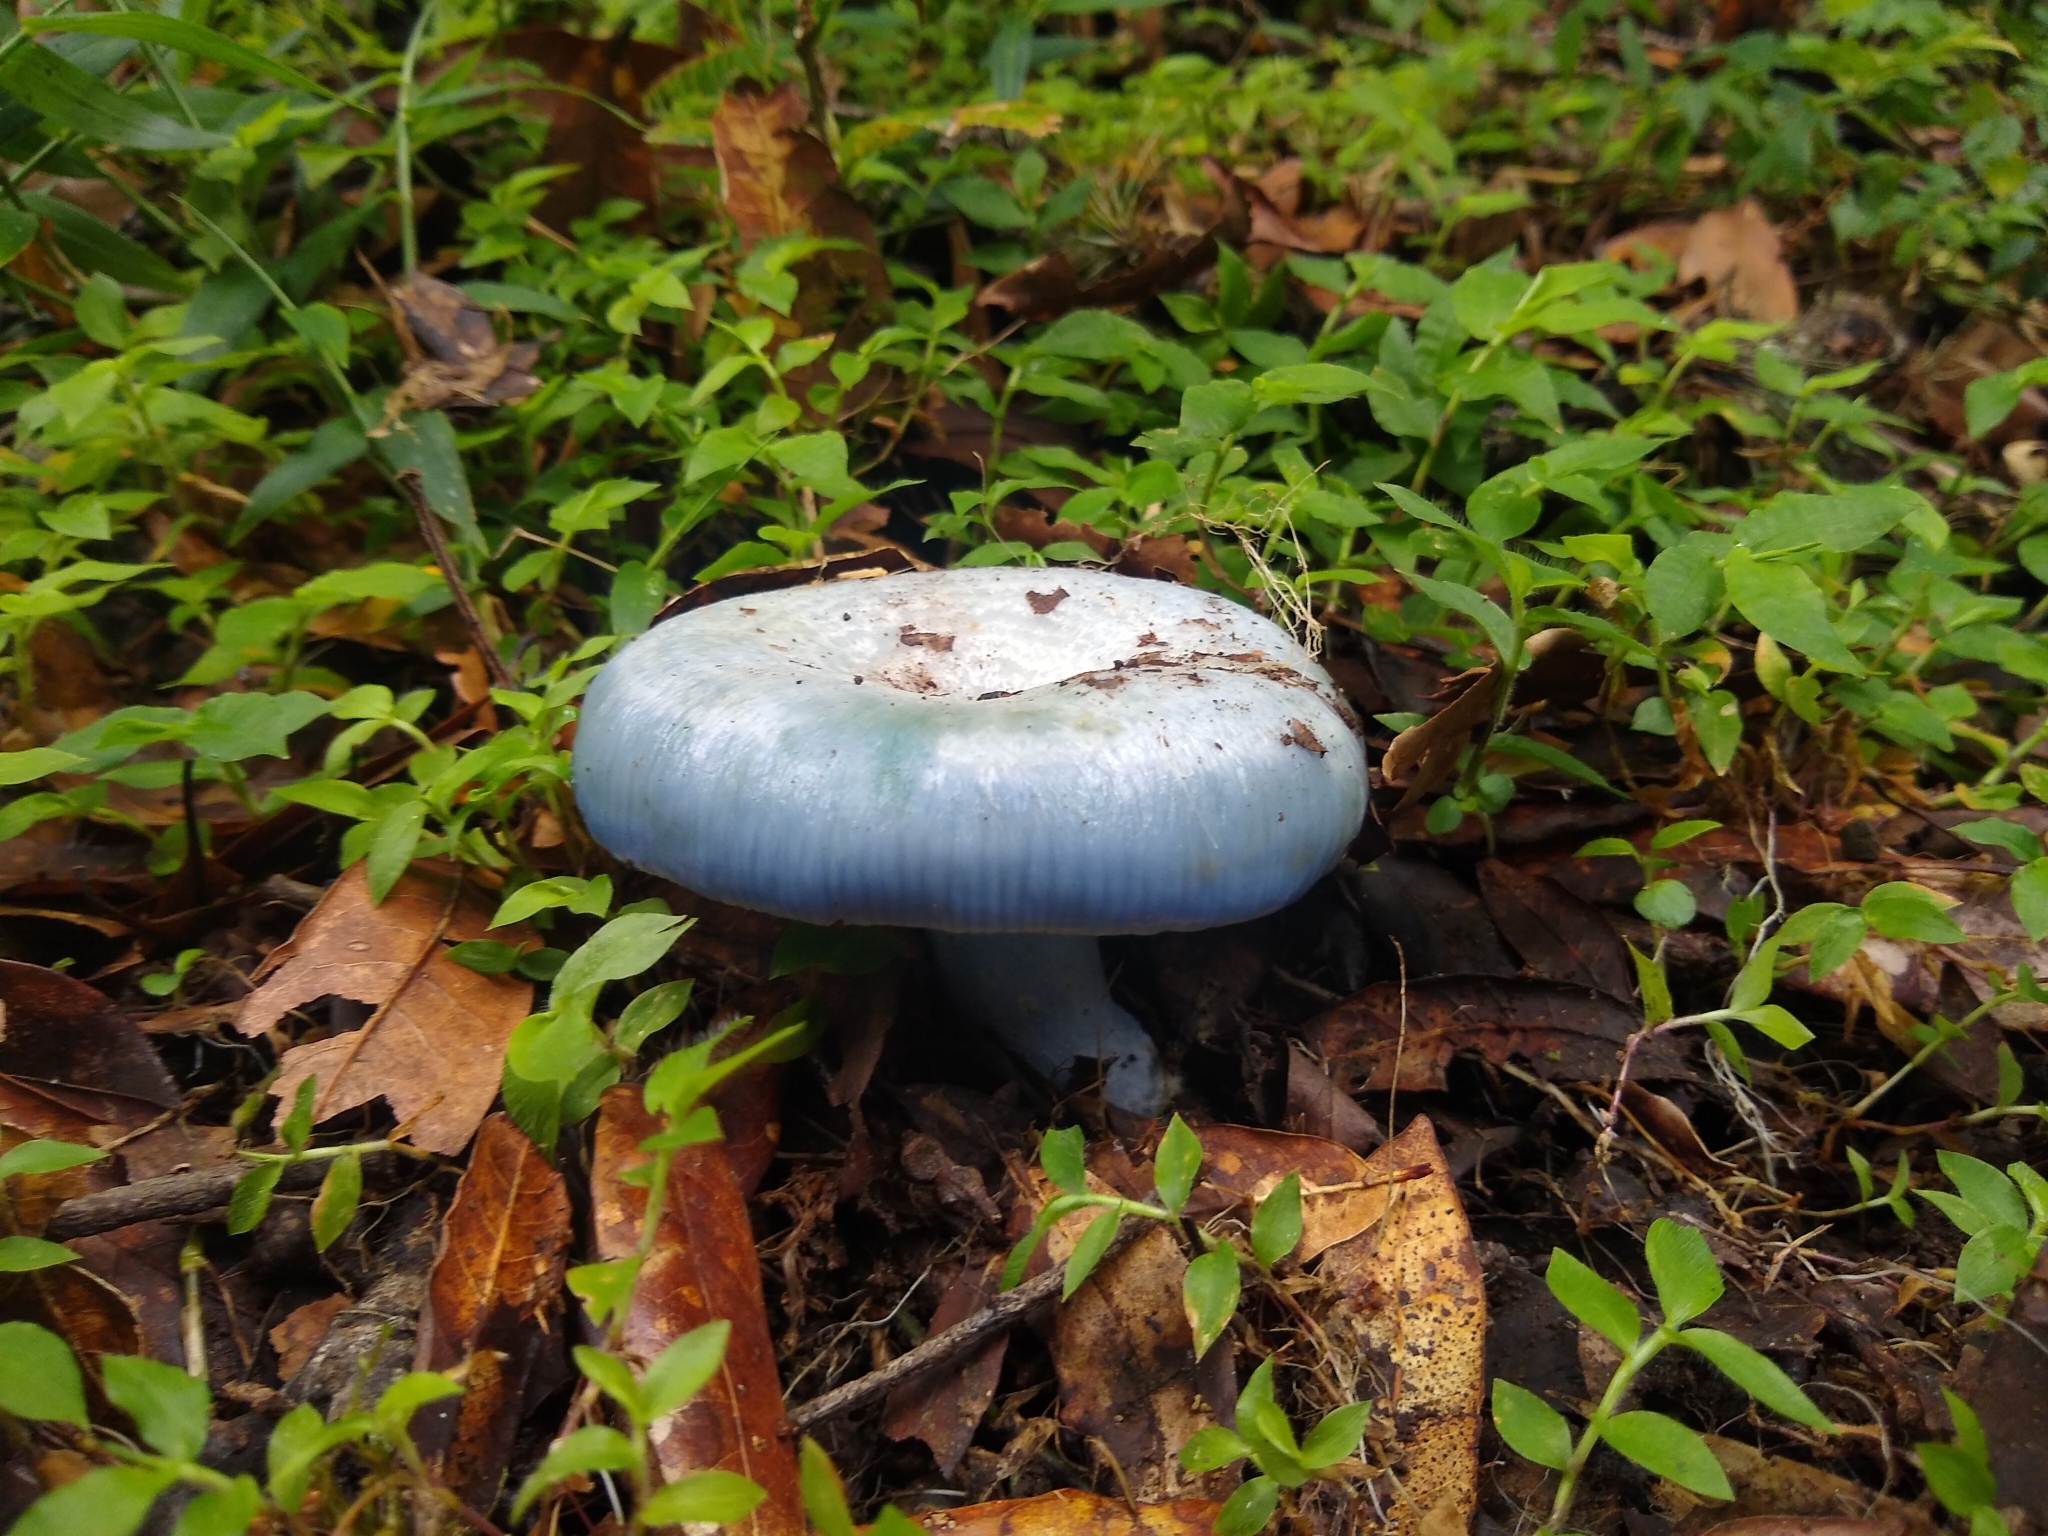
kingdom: Fungi
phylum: Basidiomycota
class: Agaricomycetes
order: Russulales
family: Russulaceae
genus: Lactarius
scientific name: Lactarius indigo
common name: Indigo milk cap
